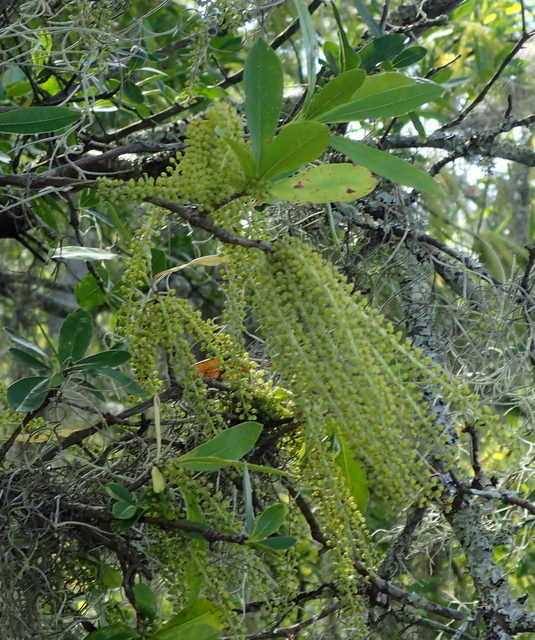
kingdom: Plantae
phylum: Tracheophyta
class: Magnoliopsida
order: Ericales
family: Cyrillaceae
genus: Cyrilla
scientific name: Cyrilla racemiflora
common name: Black titi
